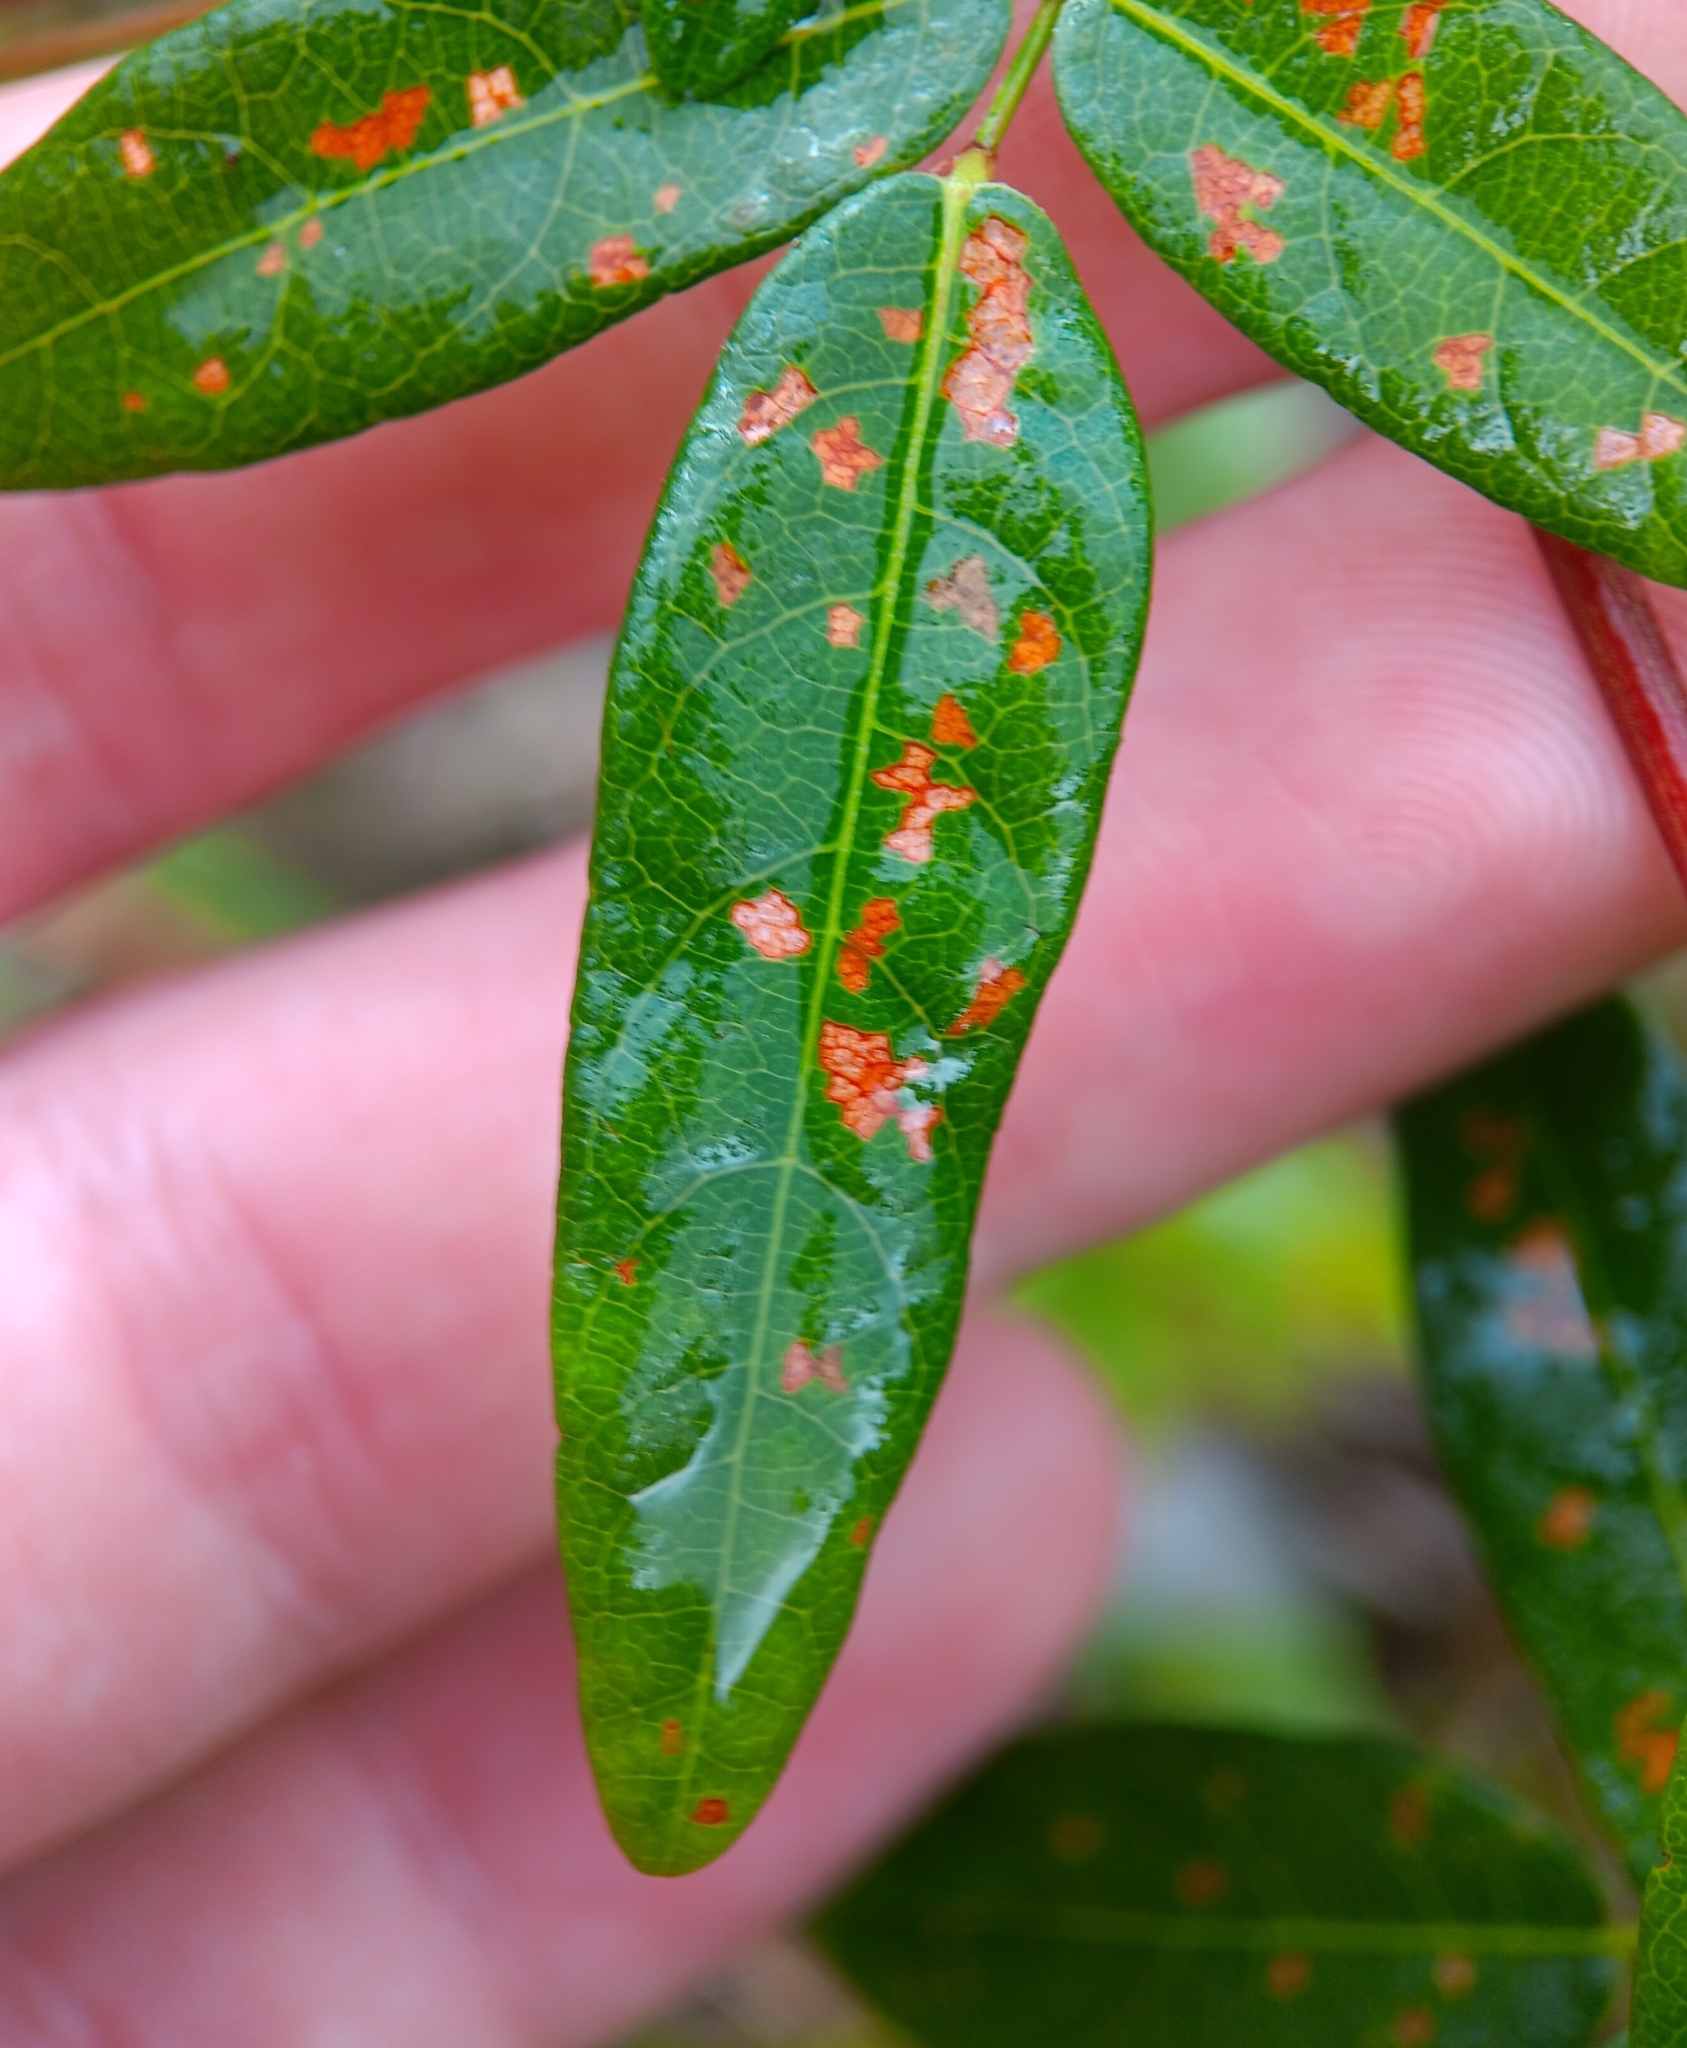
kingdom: Plantae
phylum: Tracheophyta
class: Magnoliopsida
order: Fabales
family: Fabaceae
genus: Desmodium
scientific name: Desmodium paniculatum
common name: Panicled tick-clover
